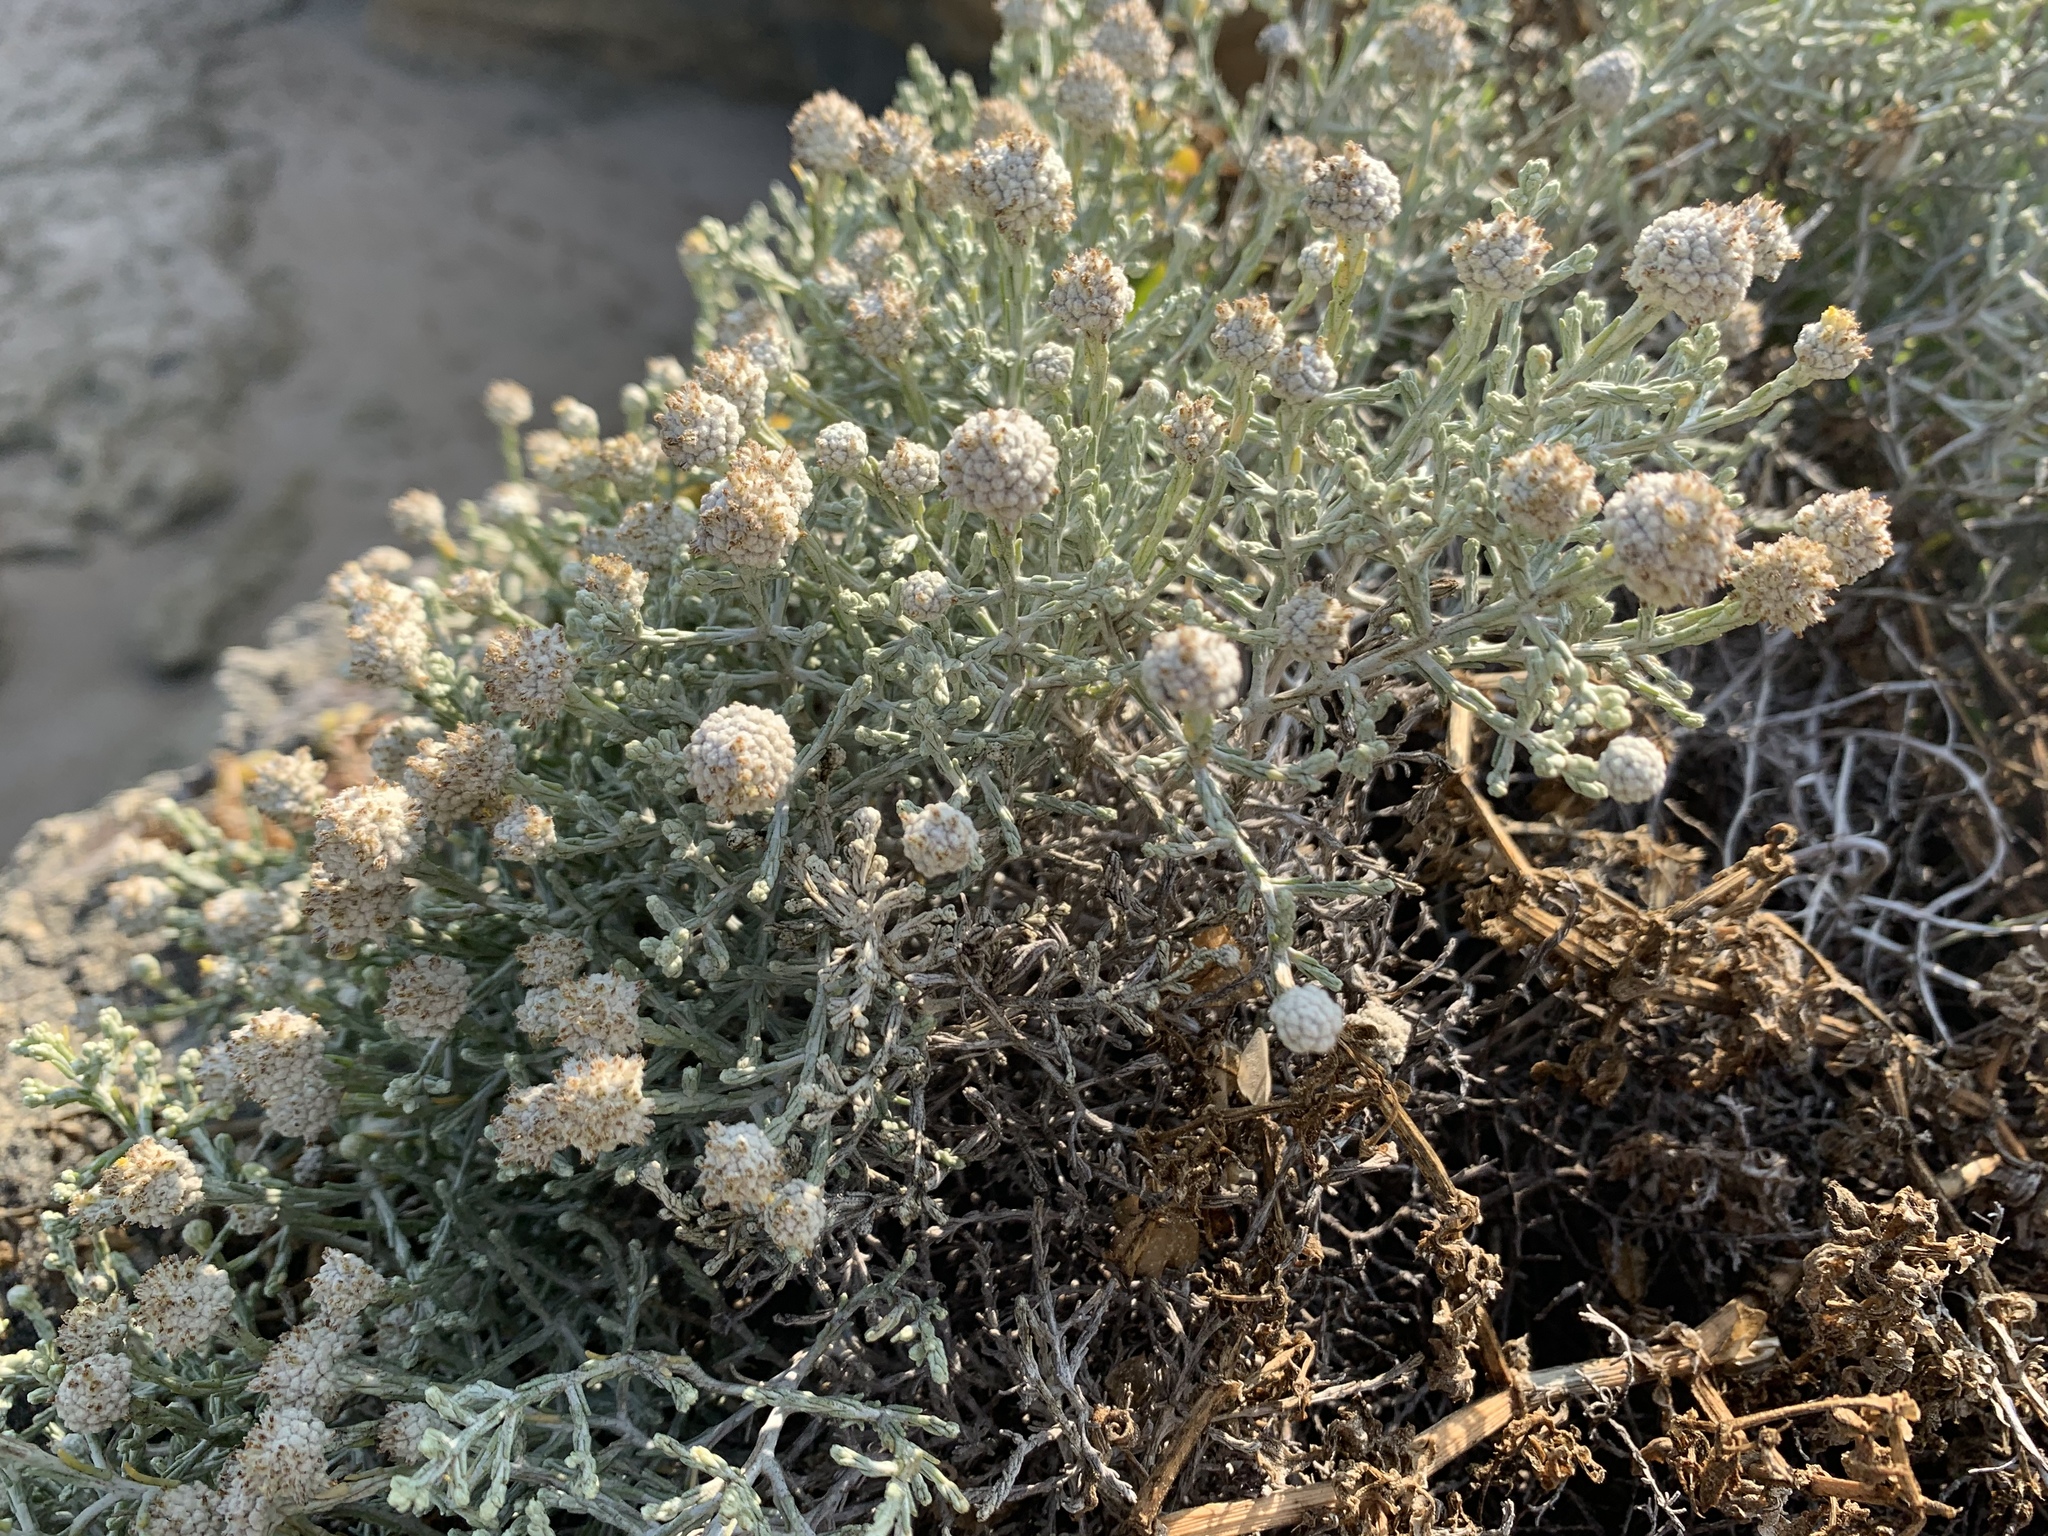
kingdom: Plantae
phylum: Tracheophyta
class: Magnoliopsida
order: Asterales
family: Asteraceae
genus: Calocephalus
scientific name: Calocephalus brownii
